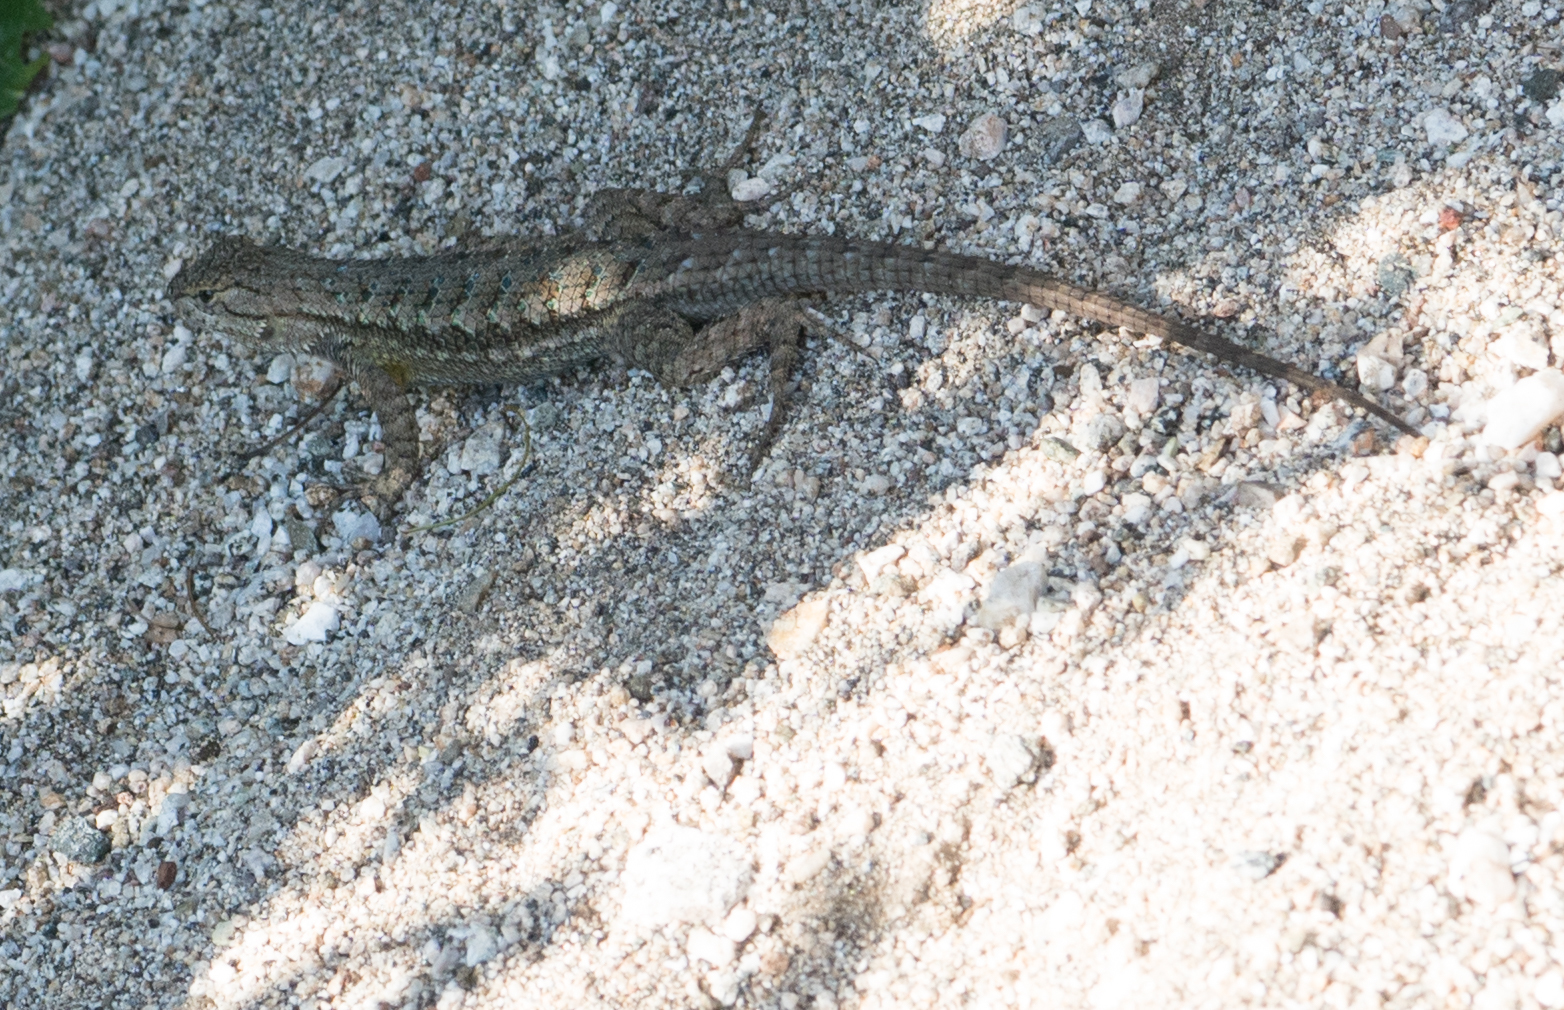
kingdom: Animalia
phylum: Chordata
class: Squamata
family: Phrynosomatidae
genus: Sceloporus
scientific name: Sceloporus occidentalis
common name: Western fence lizard
